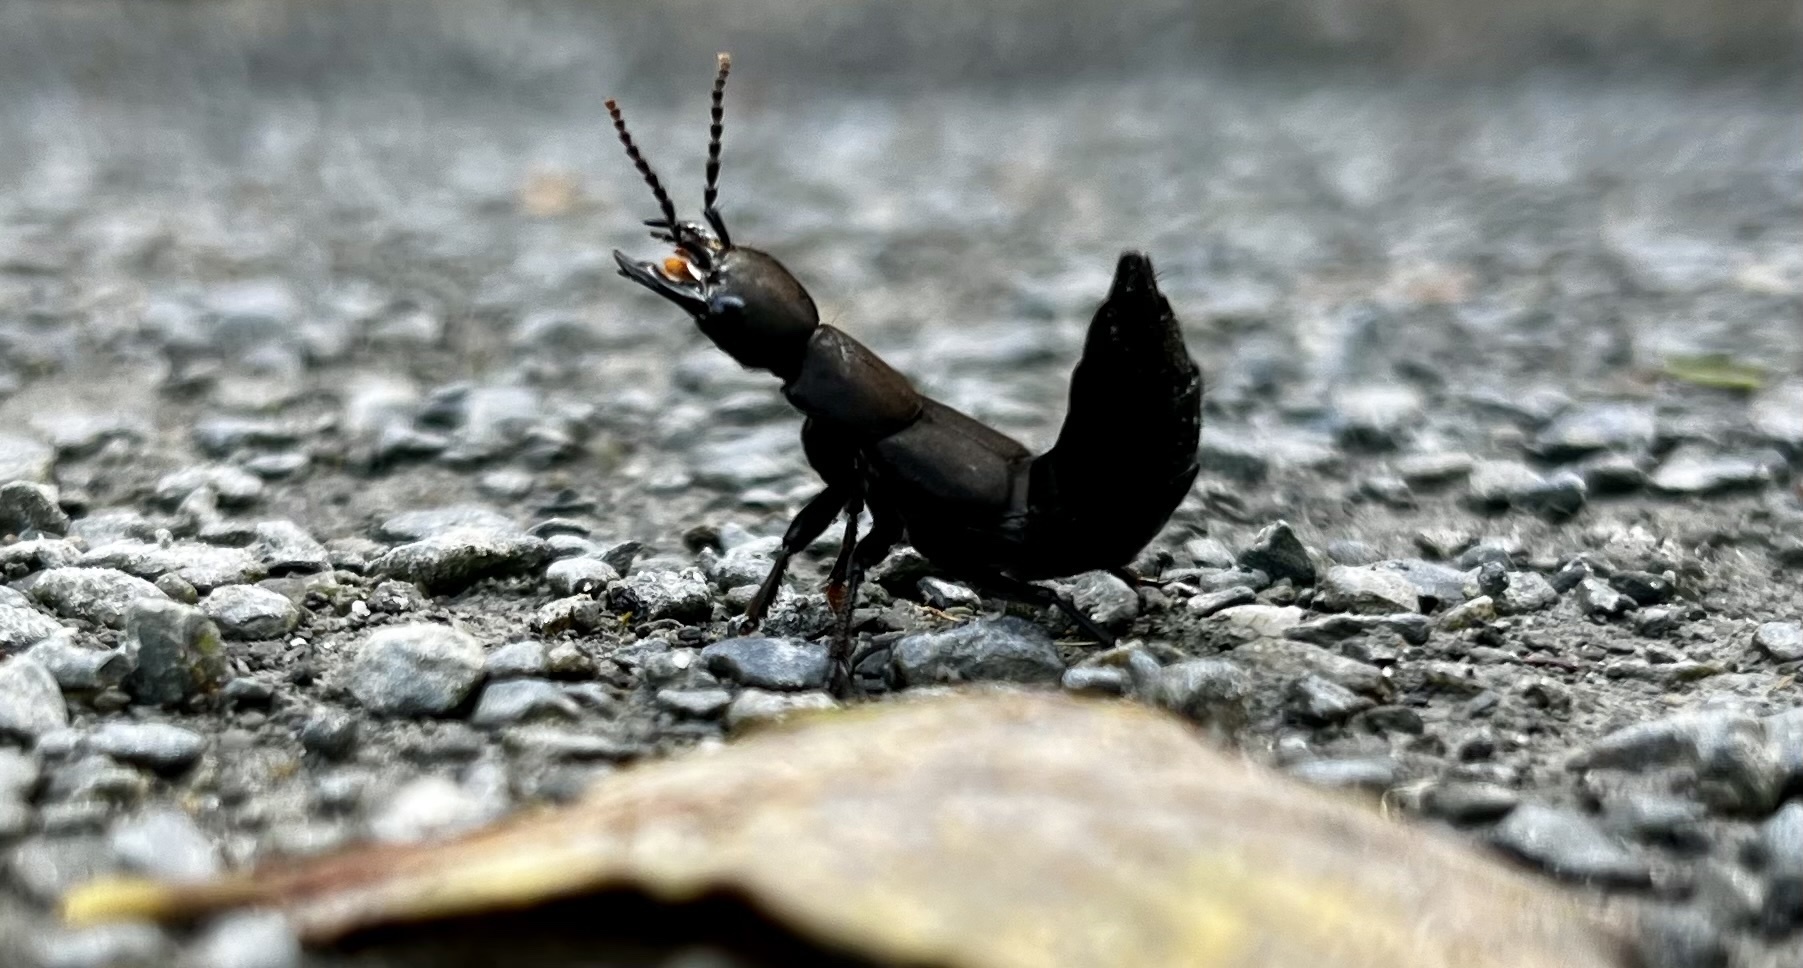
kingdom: Animalia
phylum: Arthropoda
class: Insecta
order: Coleoptera
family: Staphylinidae
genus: Ocypus
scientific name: Ocypus olens
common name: Devil's coach-horse
